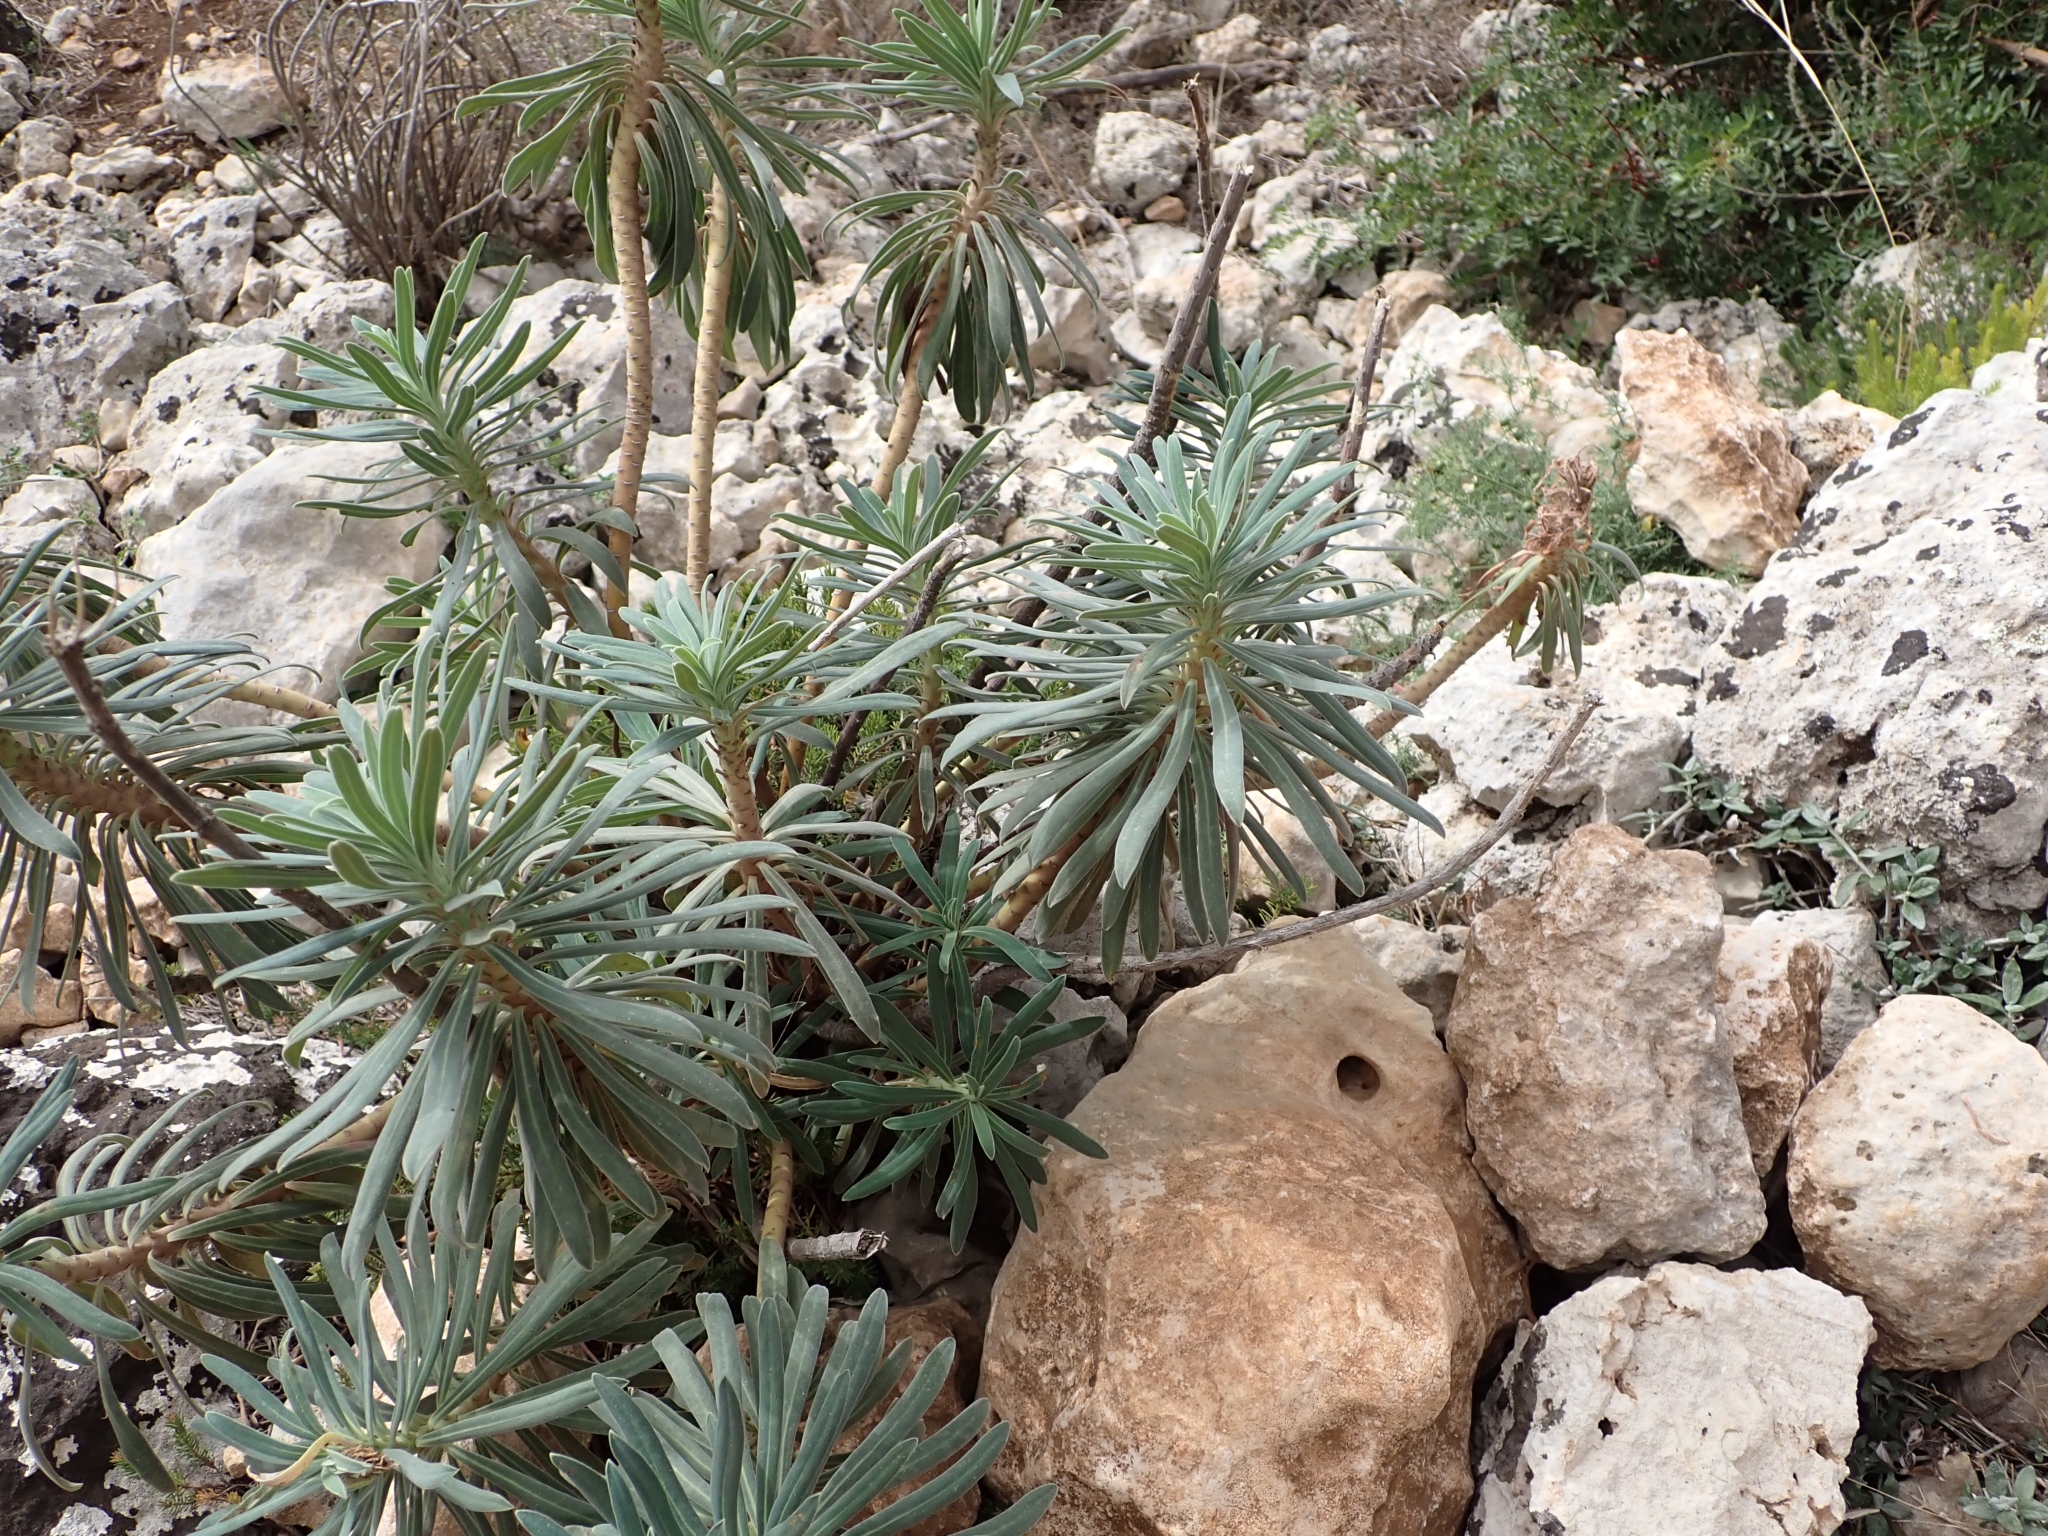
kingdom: Plantae
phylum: Tracheophyta
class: Magnoliopsida
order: Malpighiales
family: Euphorbiaceae
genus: Euphorbia
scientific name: Euphorbia characias
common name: Mediterranean spurge
